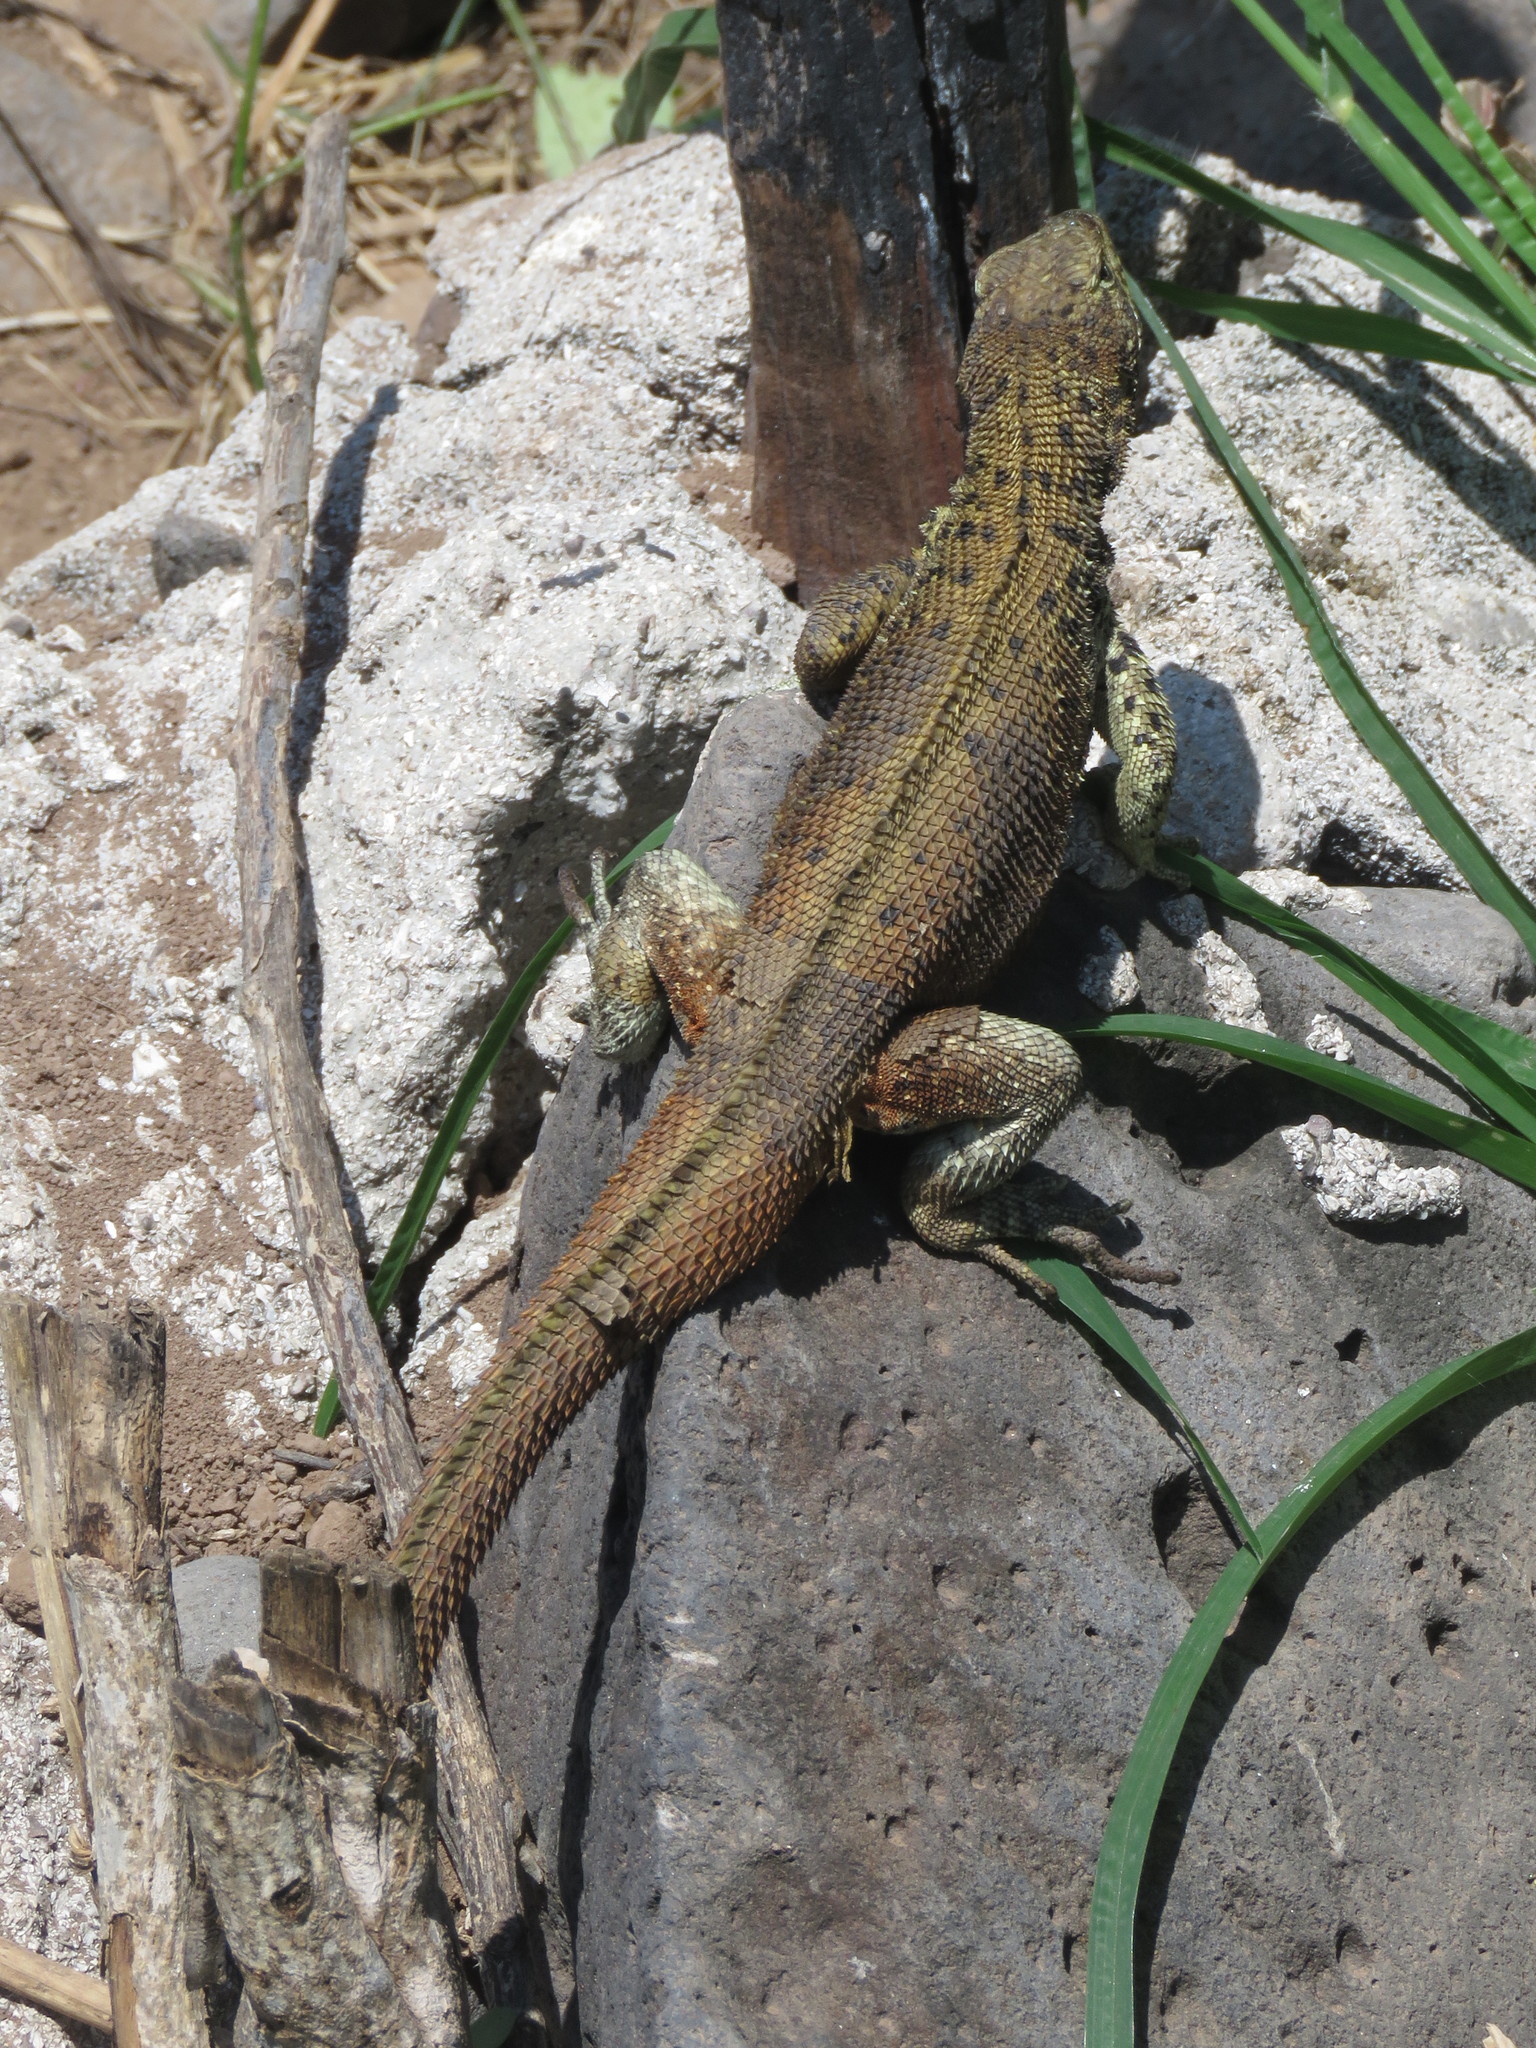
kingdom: Animalia
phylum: Chordata
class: Squamata
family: Tropiduridae
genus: Microlophus
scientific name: Microlophus delanonis
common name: Hood lava lizard
